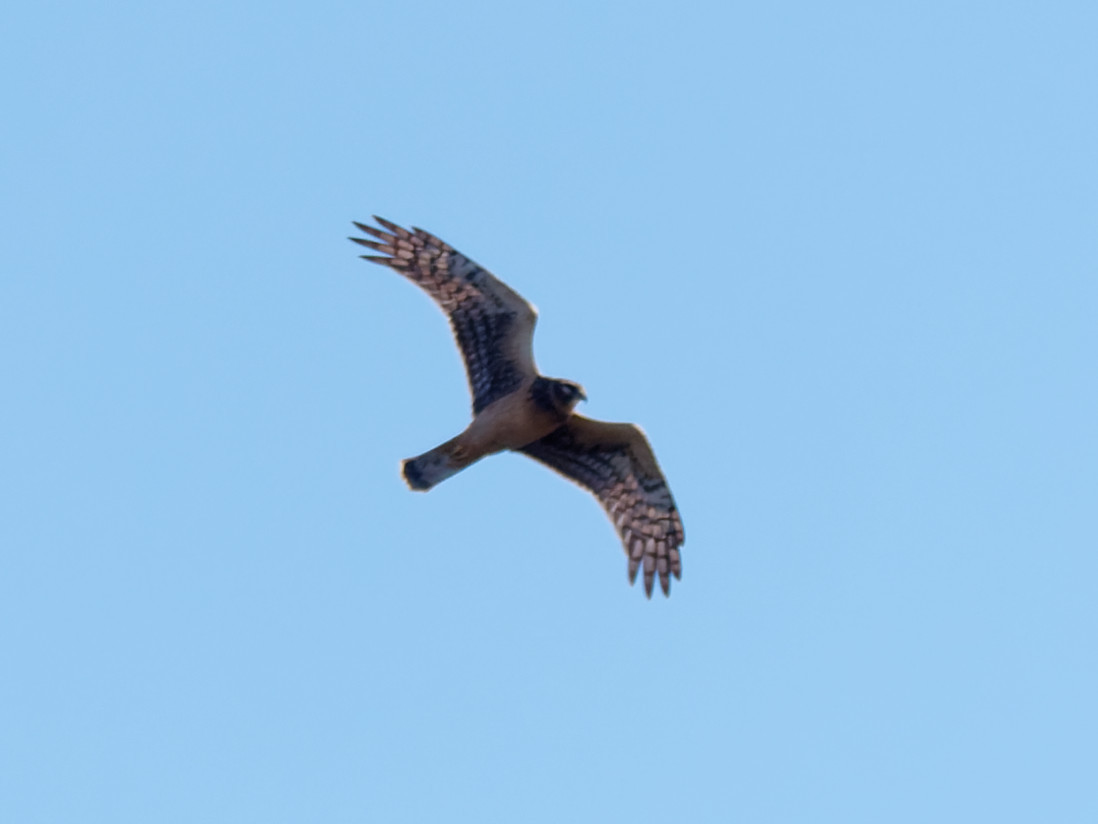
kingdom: Animalia
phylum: Chordata
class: Aves
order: Accipitriformes
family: Accipitridae
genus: Circus
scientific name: Circus cyaneus
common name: Hen harrier
